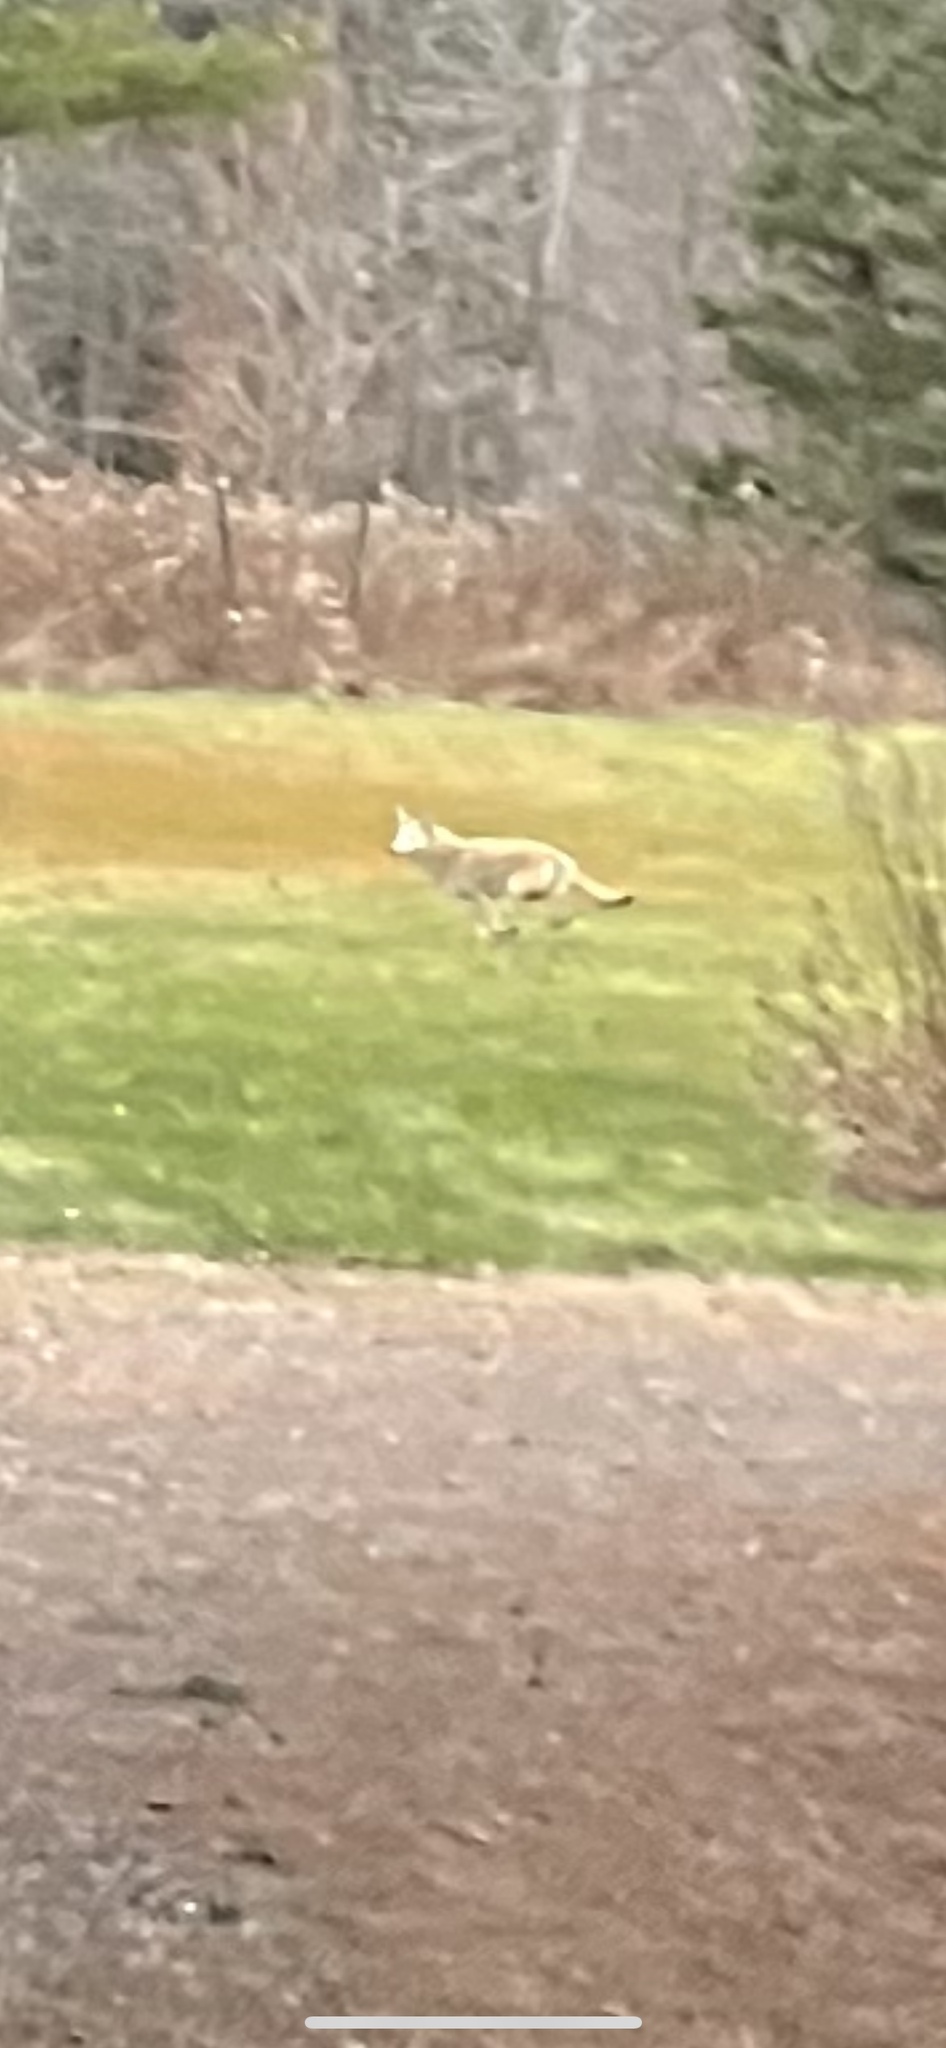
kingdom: Animalia
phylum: Chordata
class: Mammalia
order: Carnivora
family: Canidae
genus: Canis
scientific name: Canis latrans
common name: Coyote
